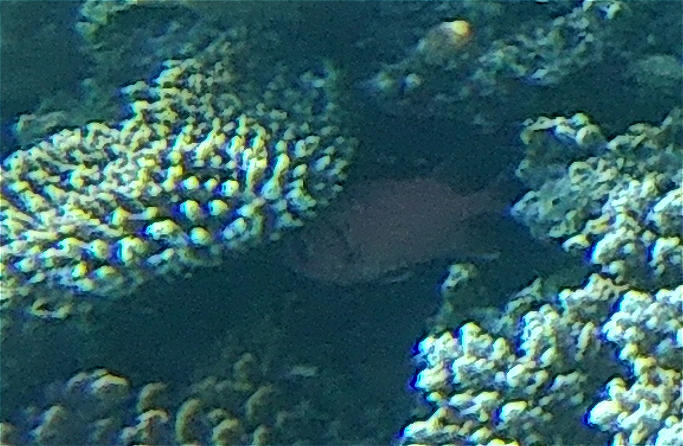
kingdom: Animalia
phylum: Chordata
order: Beryciformes
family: Holocentridae
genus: Myripristis
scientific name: Myripristis murdjan
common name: Big-eye soldierfish
